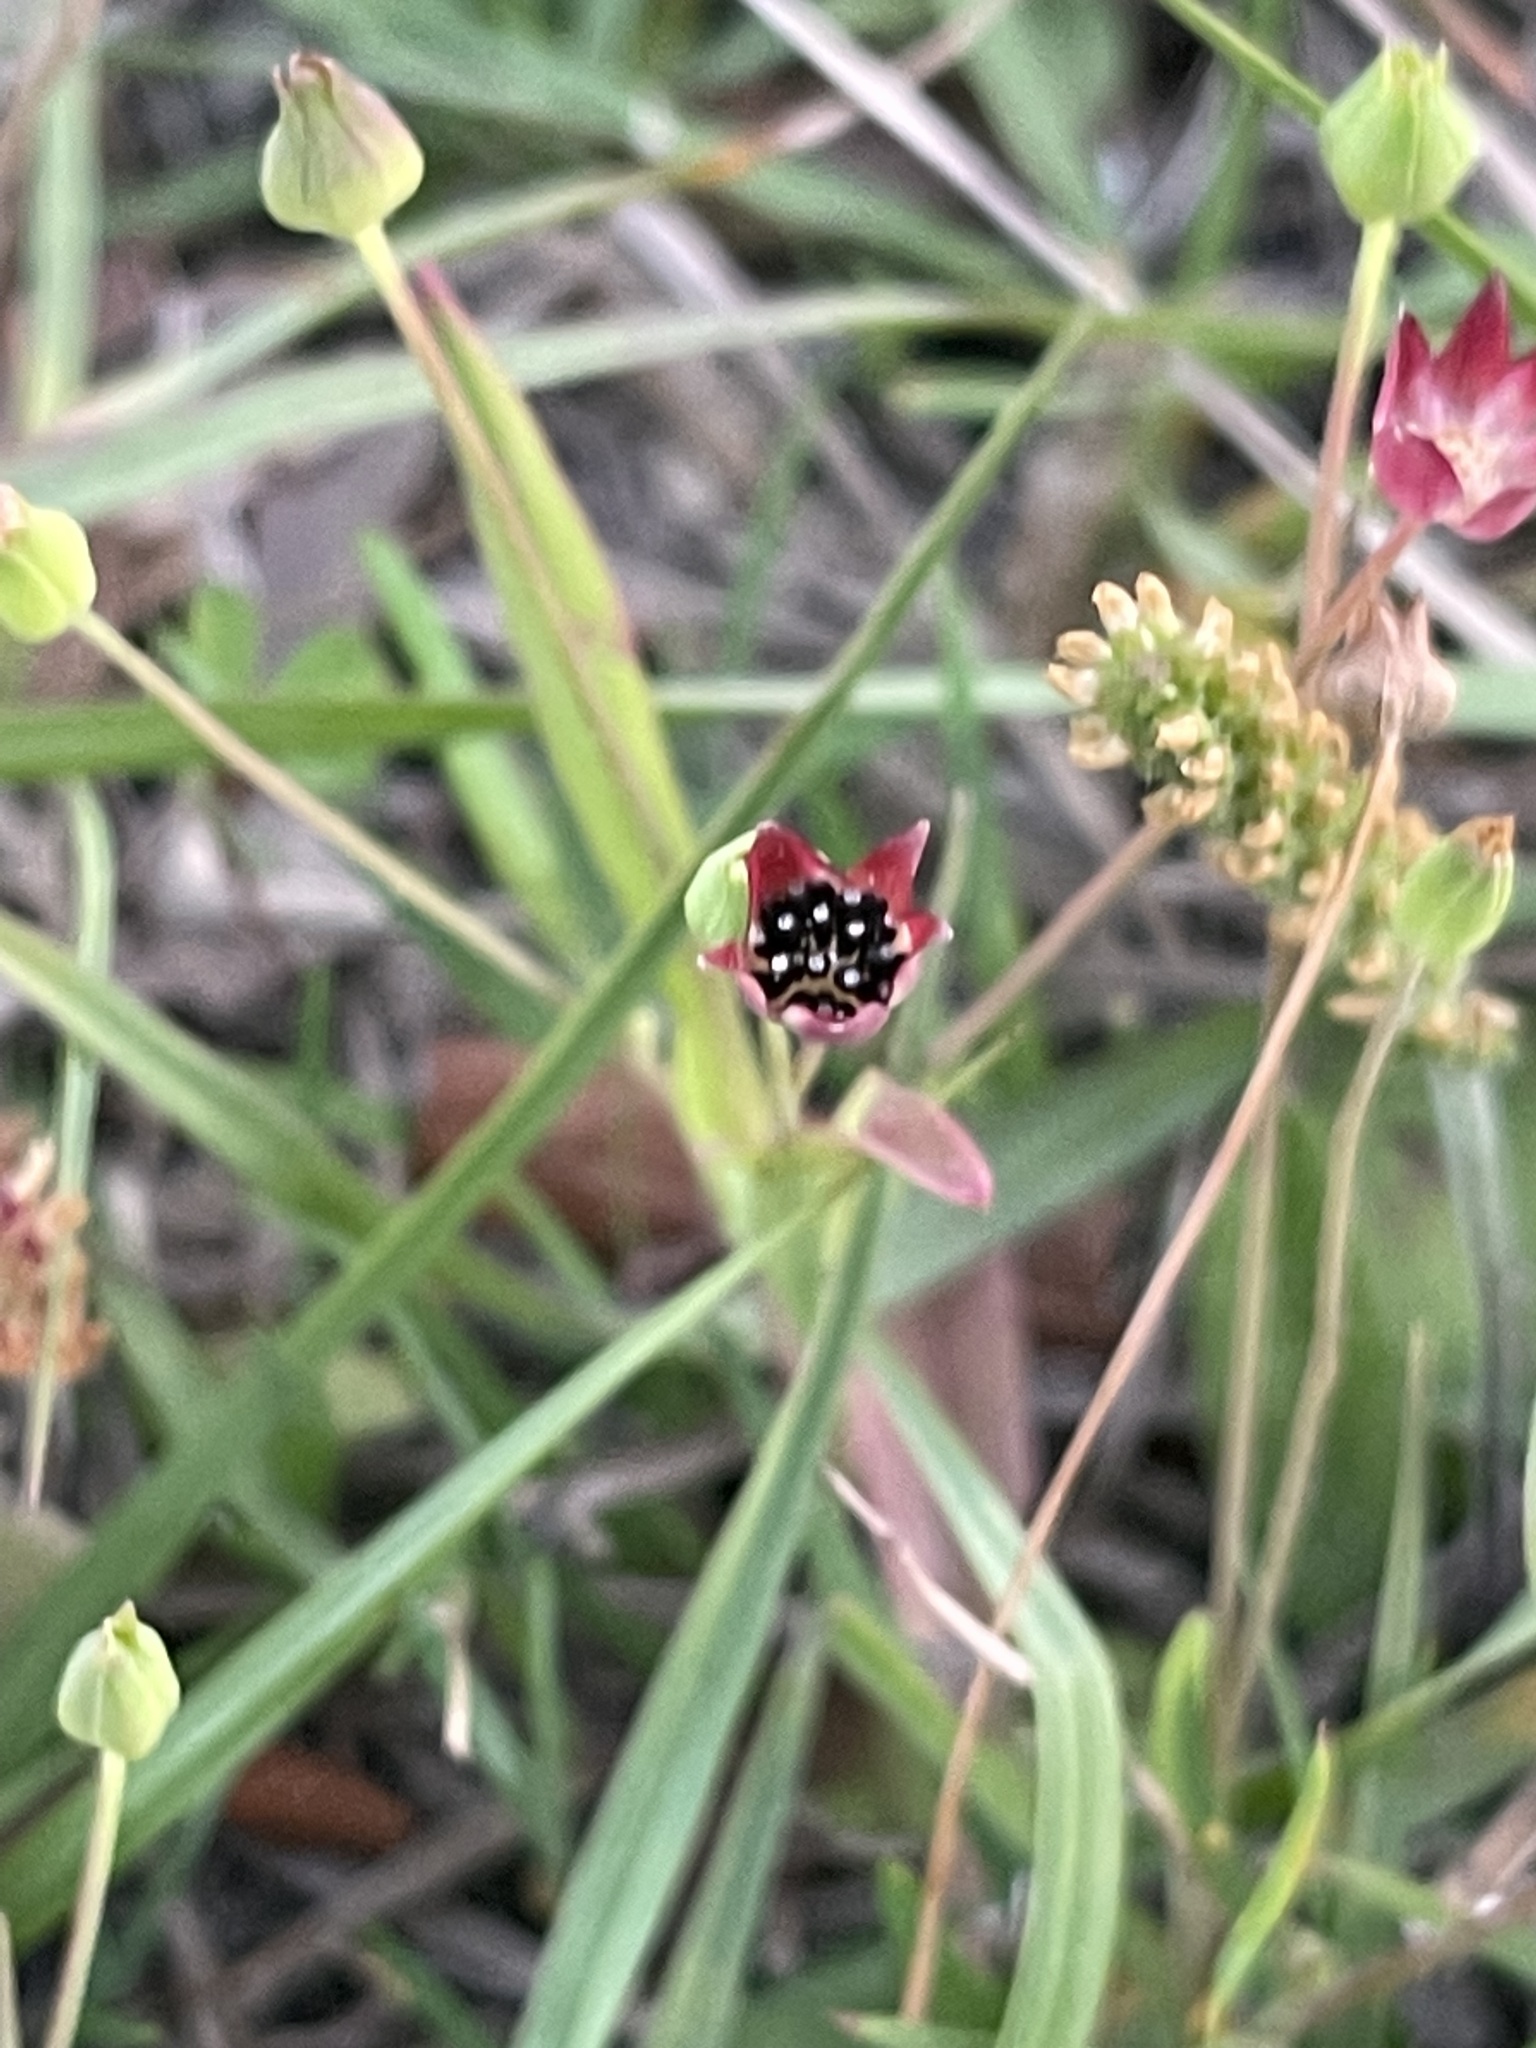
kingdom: Plantae
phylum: Tracheophyta
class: Magnoliopsida
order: Asterales
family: Asteraceae
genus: Krigia
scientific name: Krigia cespitosa
